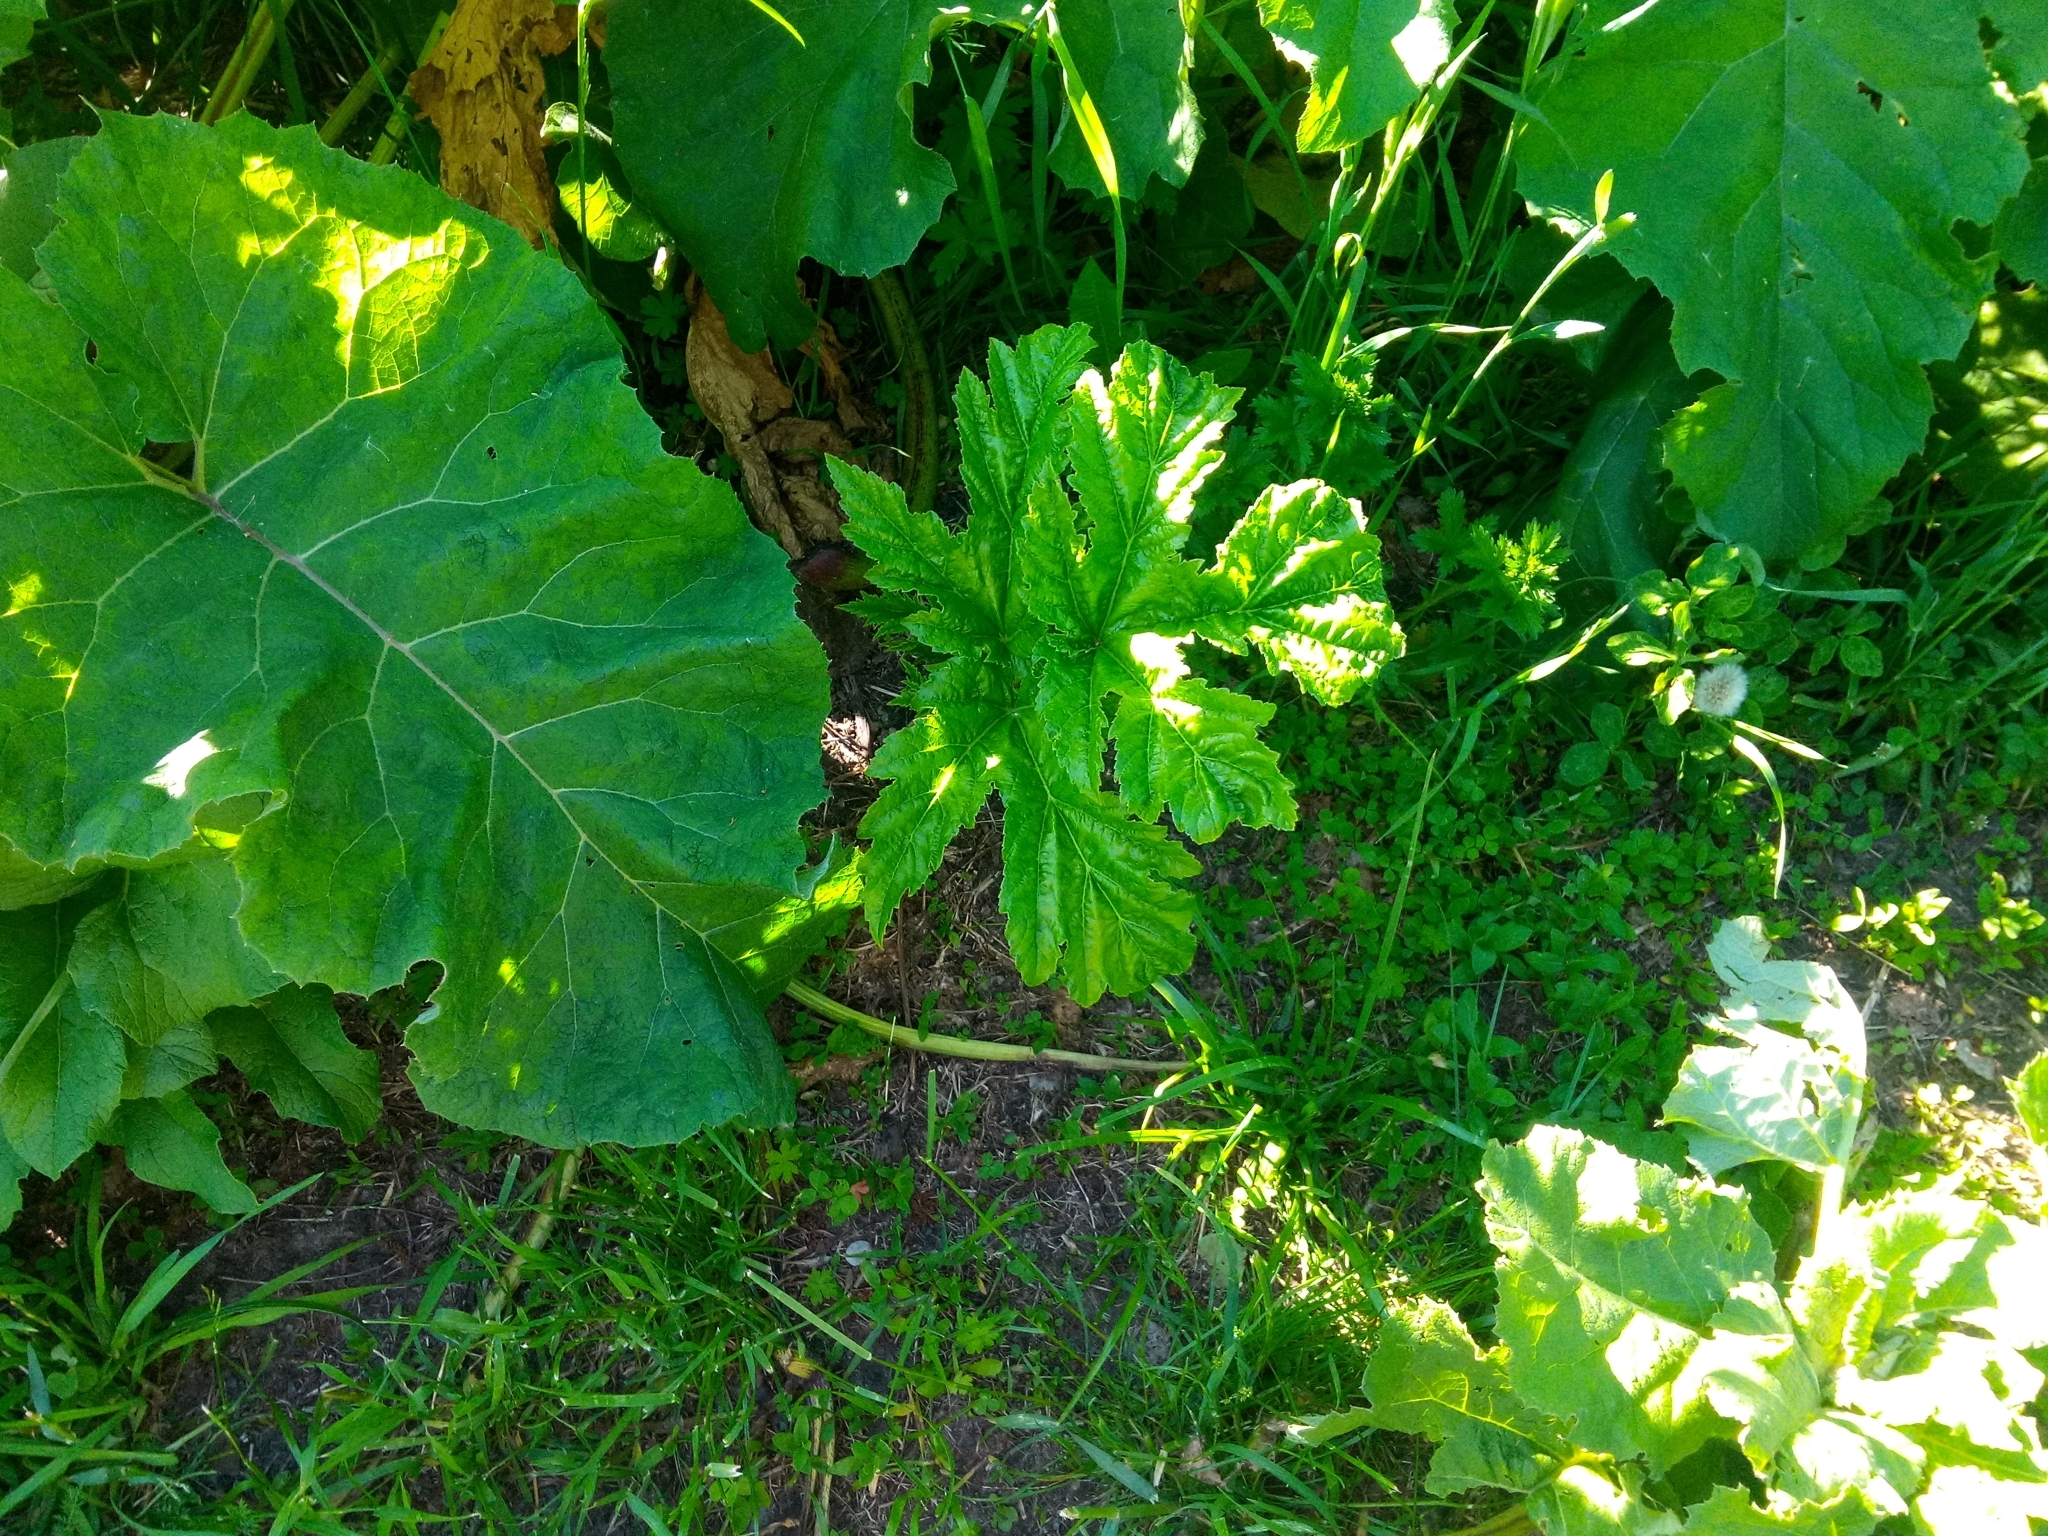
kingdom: Plantae
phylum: Tracheophyta
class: Magnoliopsida
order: Apiales
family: Apiaceae
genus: Heracleum
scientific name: Heracleum sosnowskyi
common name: Sosnowsky's hogweed
